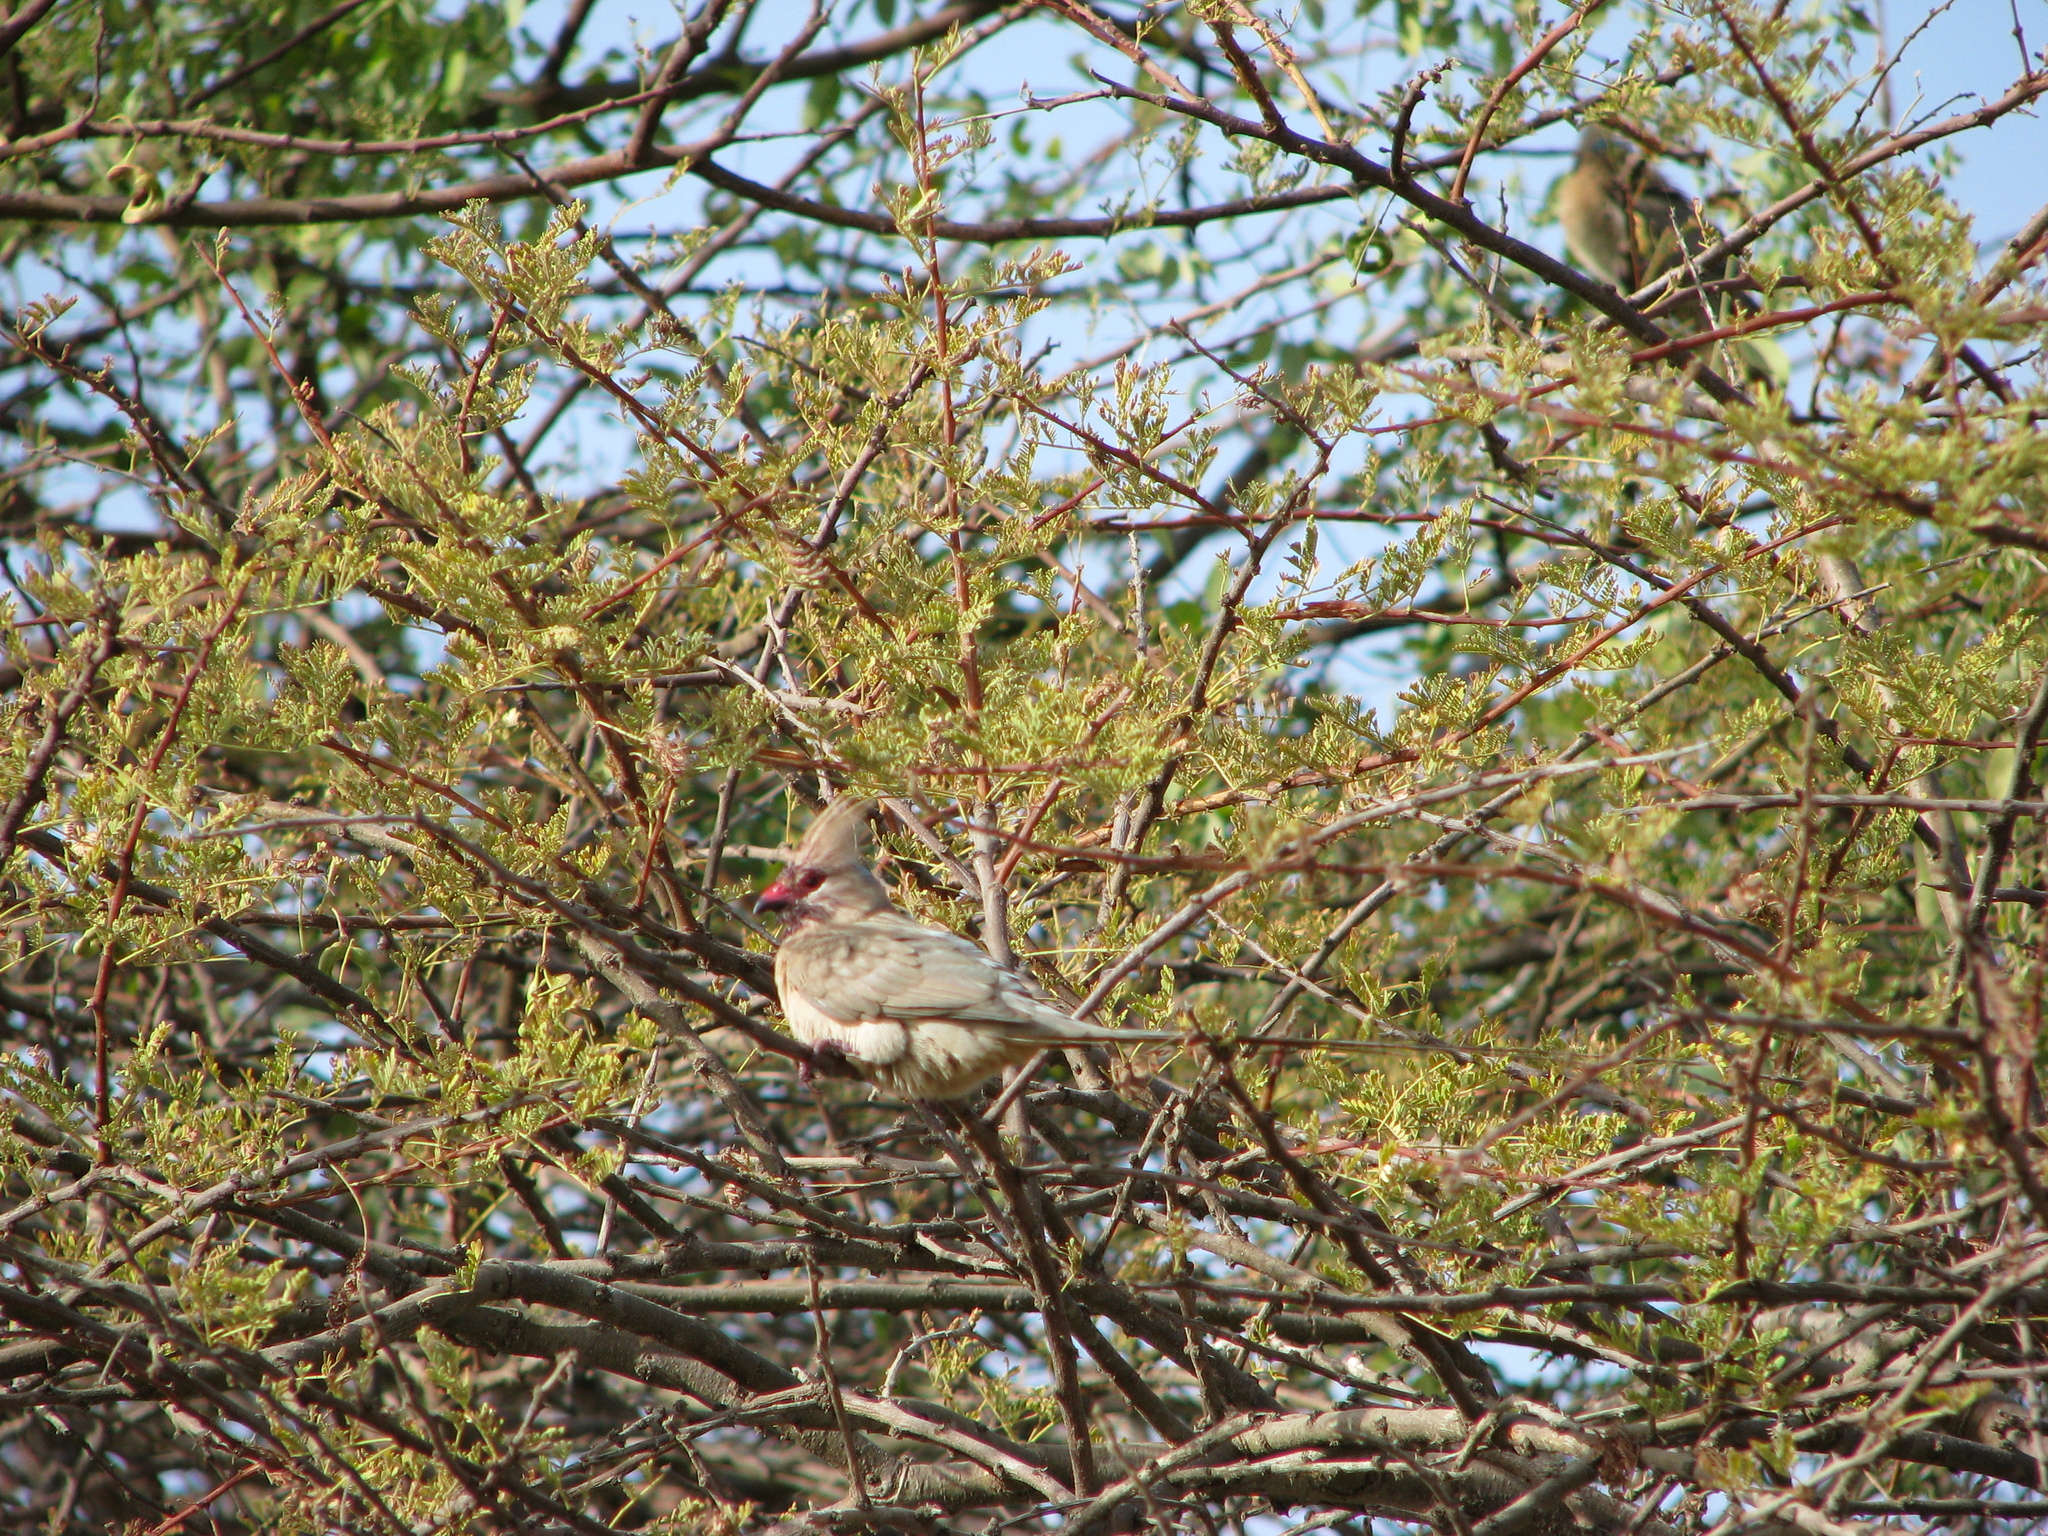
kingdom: Animalia
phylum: Chordata
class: Aves
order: Coliiformes
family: Coliidae
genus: Urocolius
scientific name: Urocolius macrourus
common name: Blue-naped mousebird
